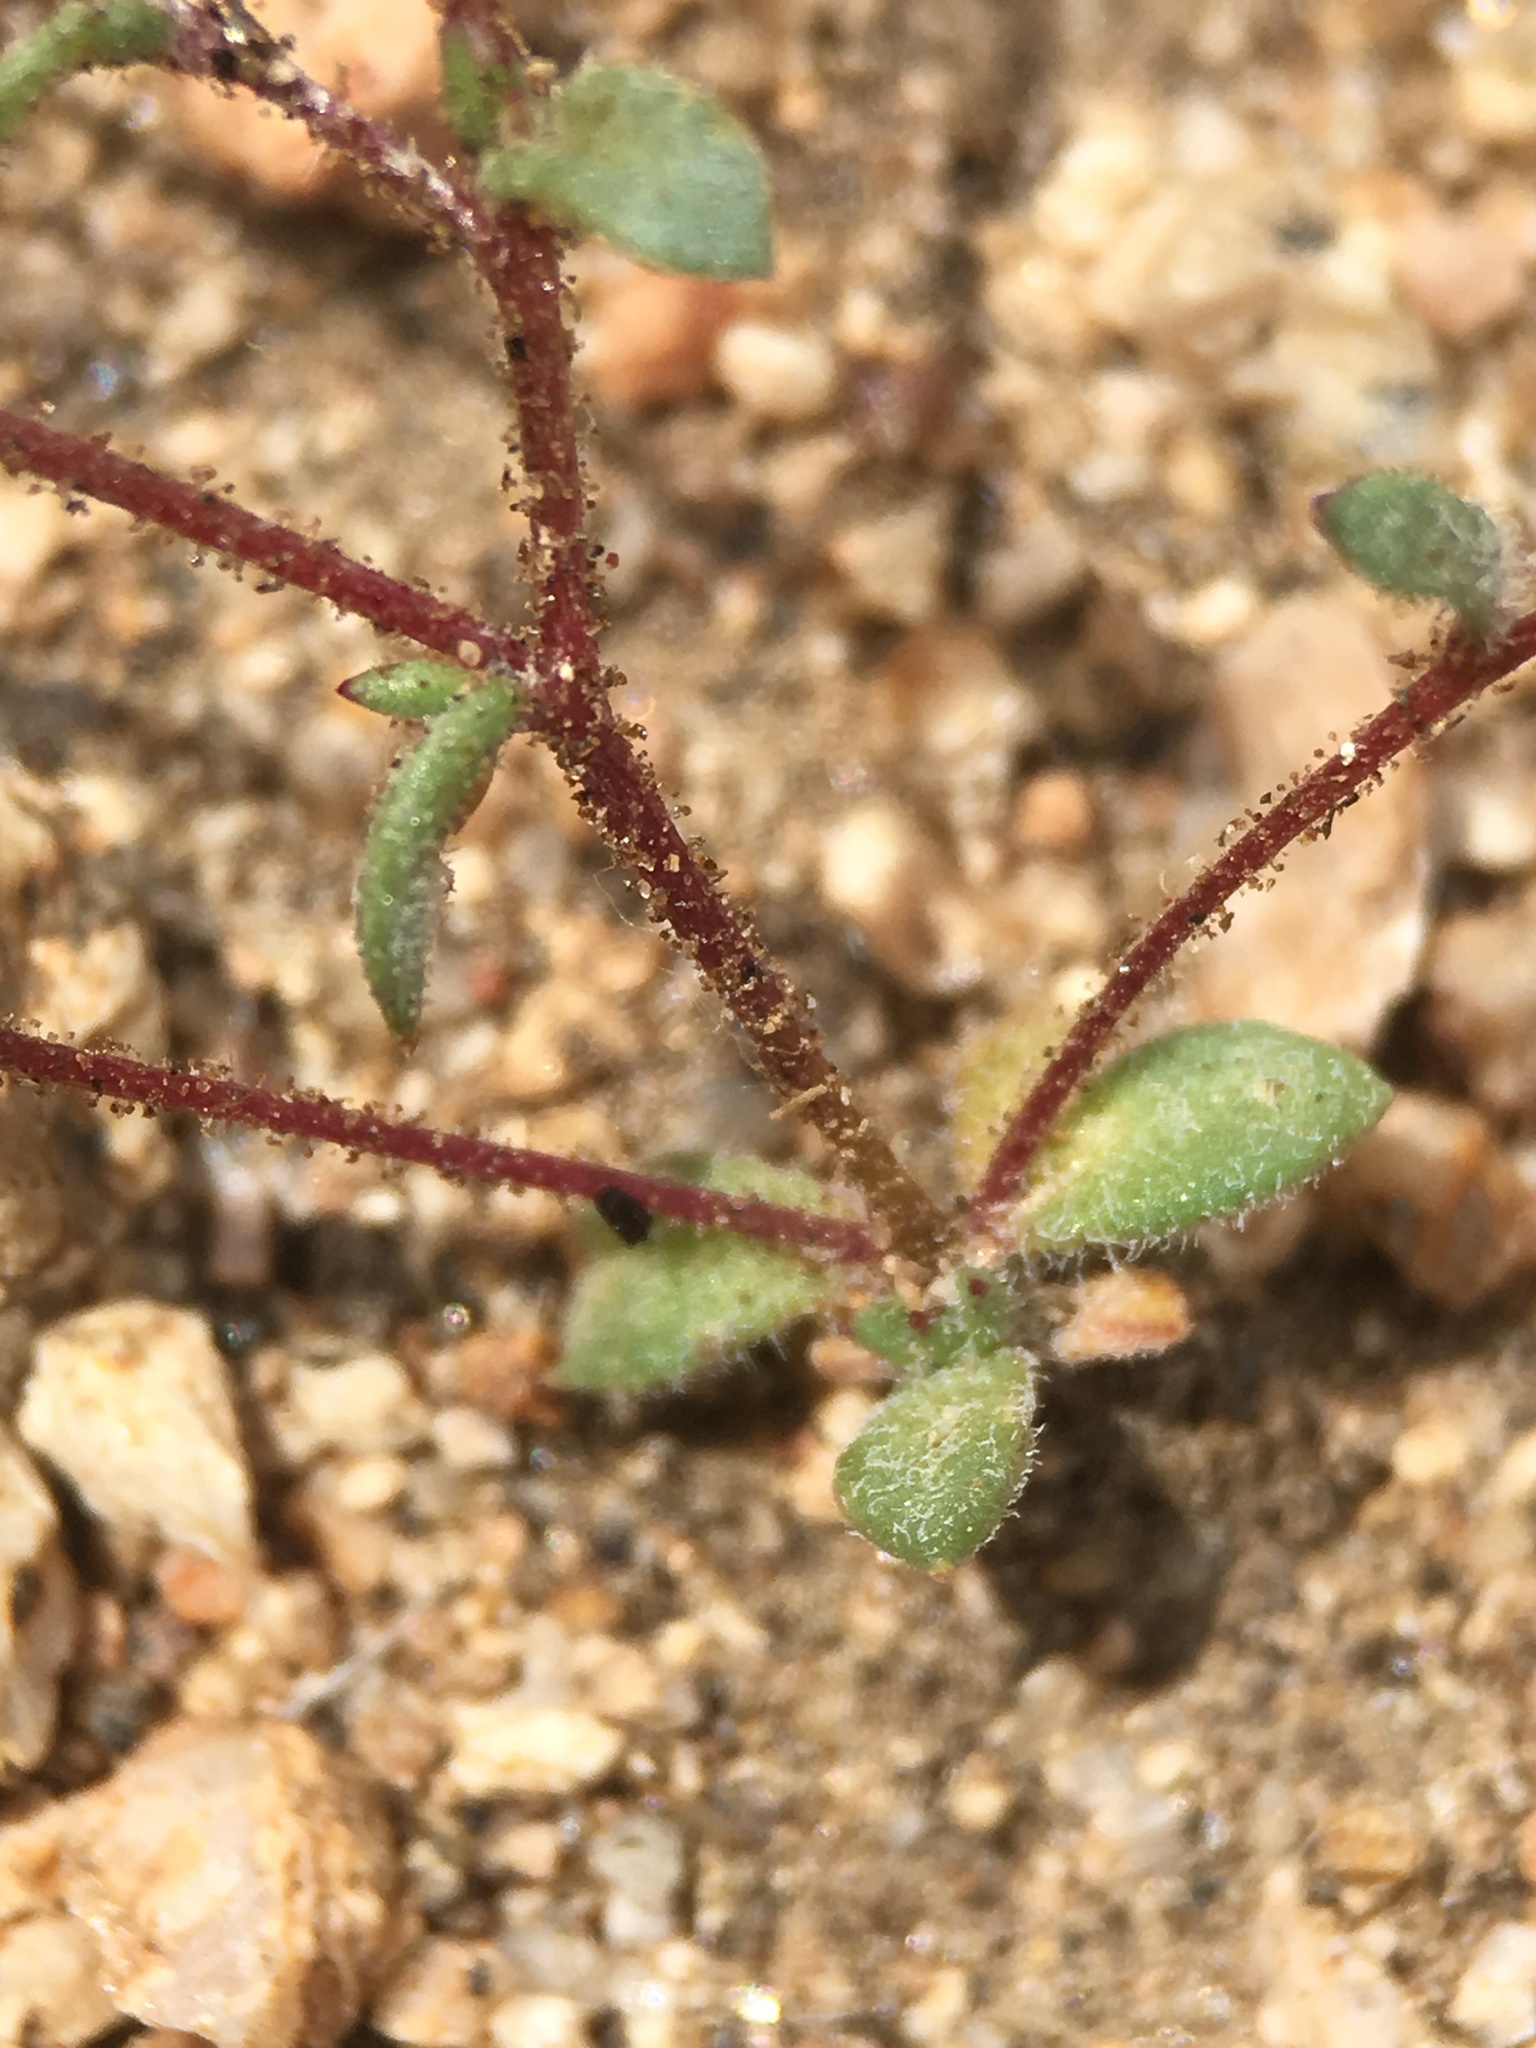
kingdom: Plantae
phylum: Tracheophyta
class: Magnoliopsida
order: Ericales
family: Polemoniaceae
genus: Linanthus
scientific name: Linanthus inyoensis
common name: Inyo gilia
